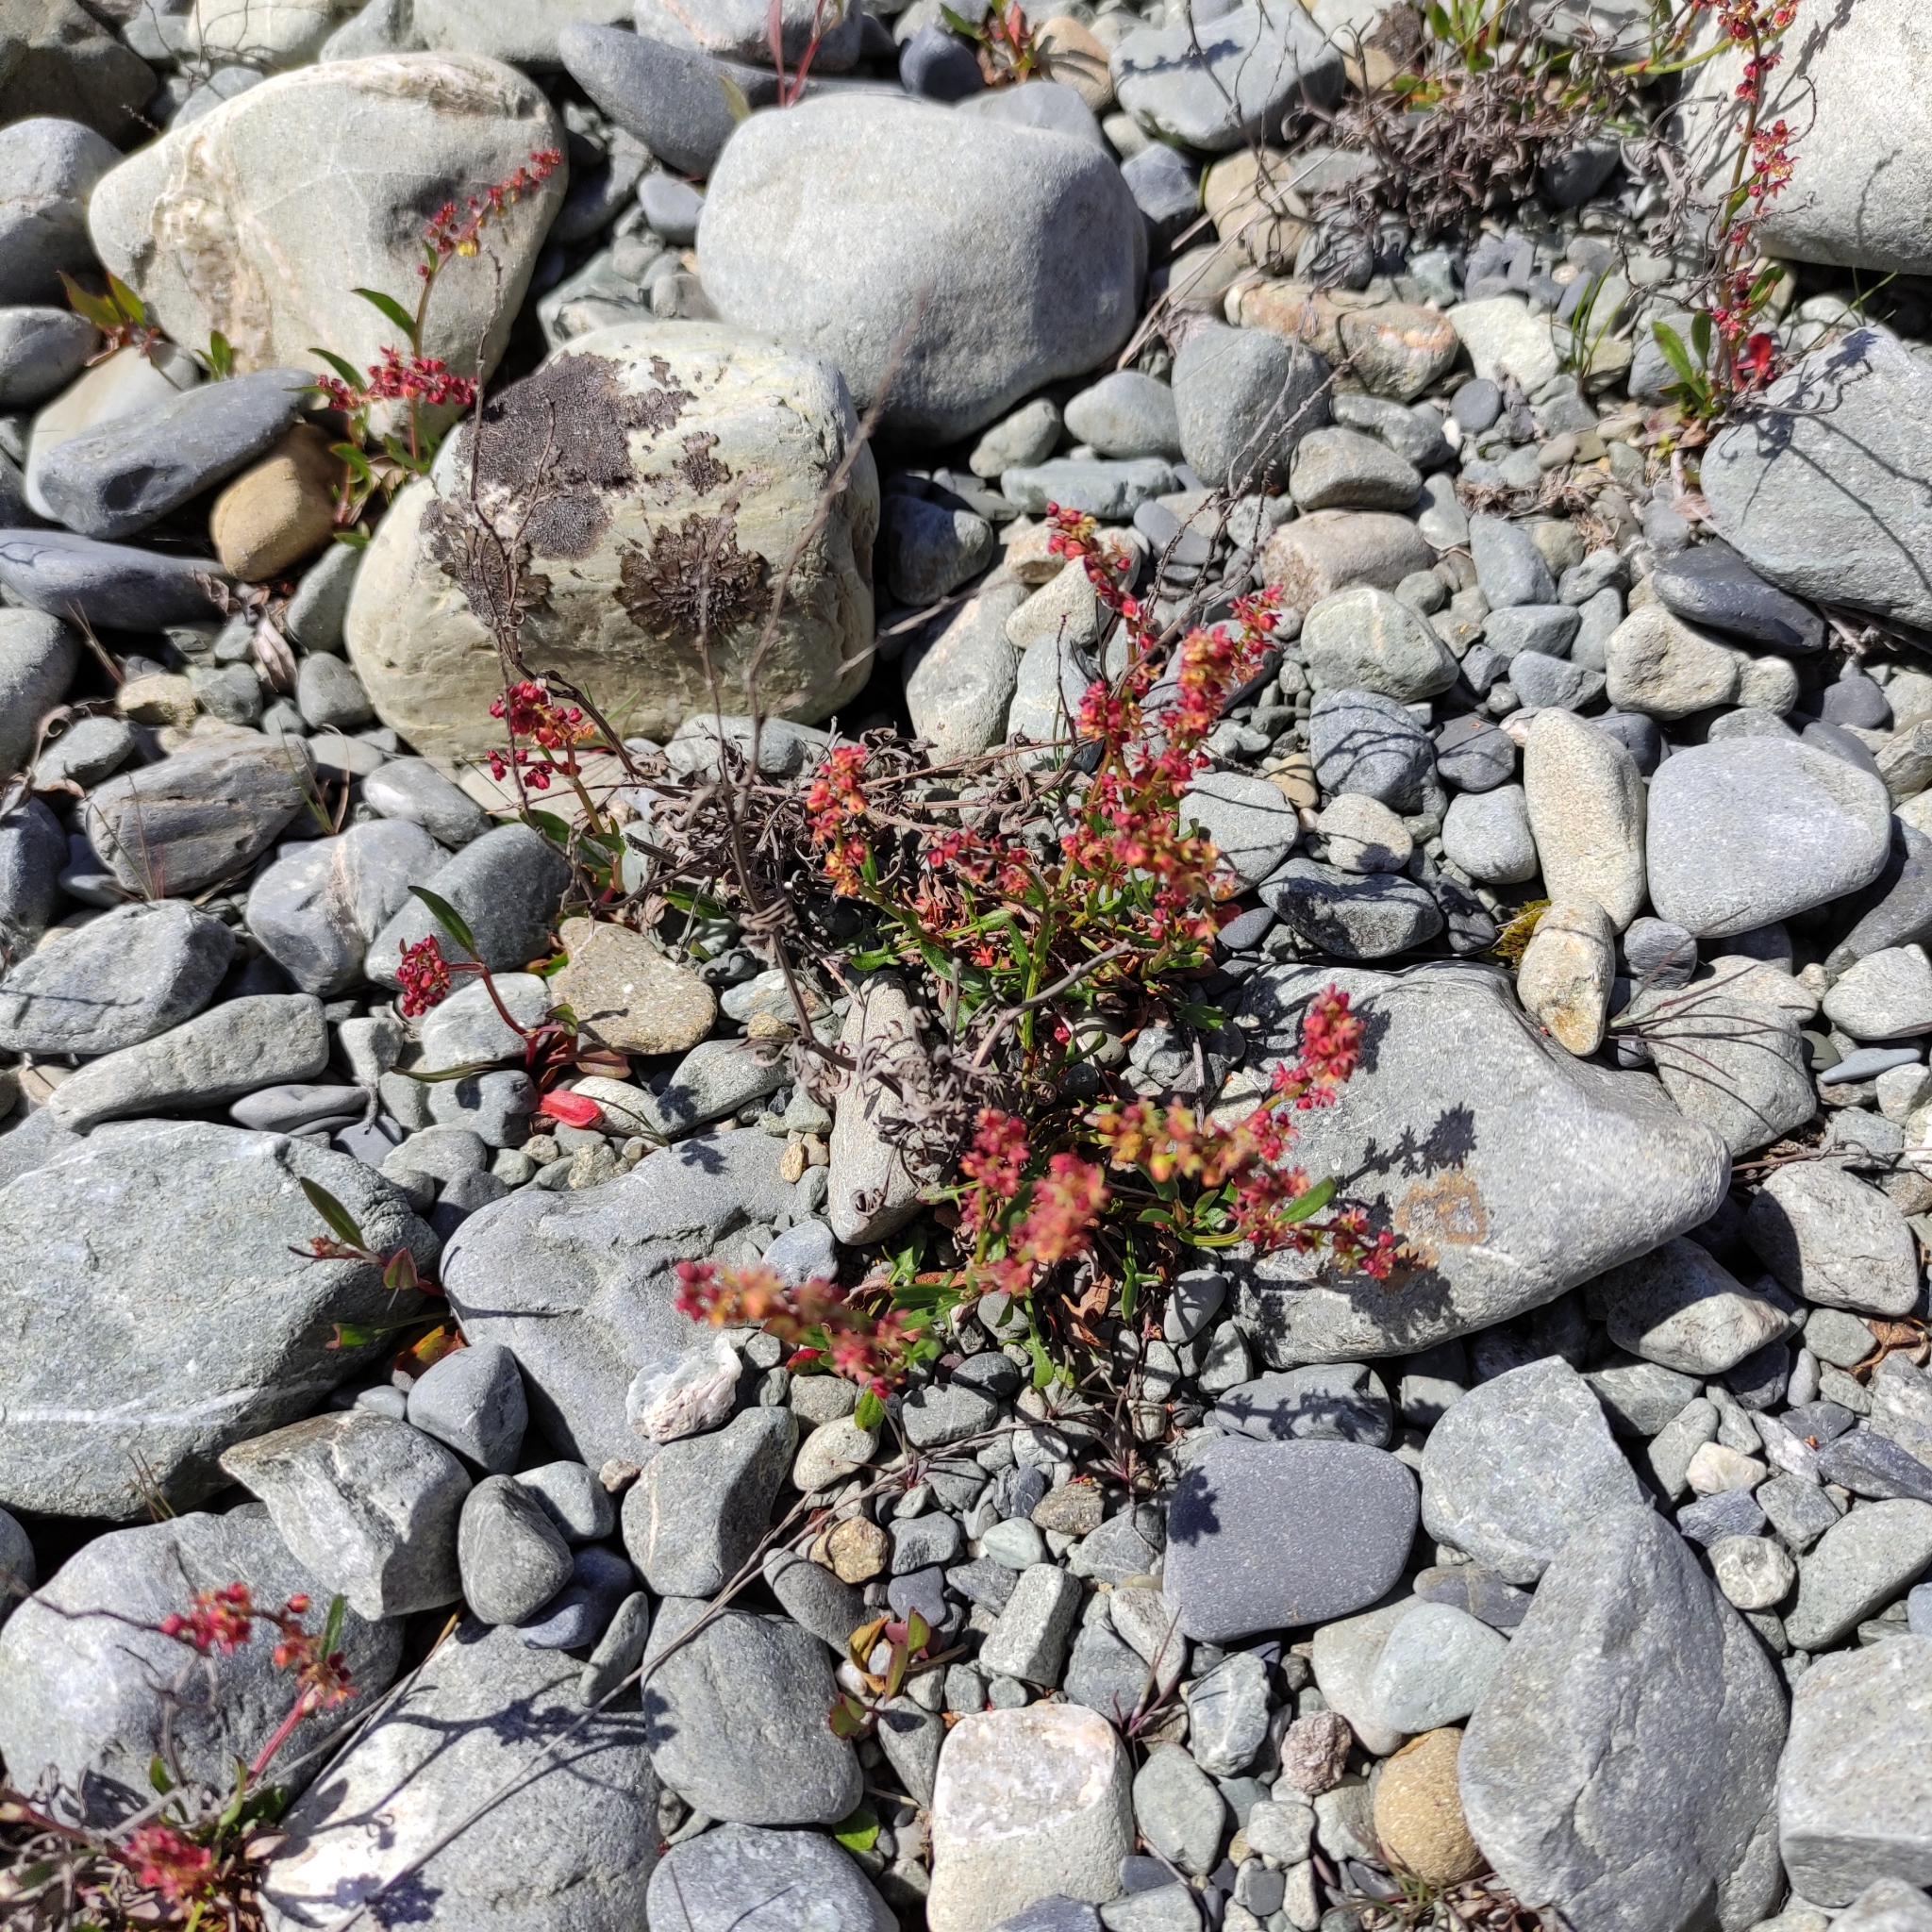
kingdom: Plantae
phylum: Tracheophyta
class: Magnoliopsida
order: Caryophyllales
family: Polygonaceae
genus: Rumex
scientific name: Rumex acetosella
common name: Common sheep sorrel
